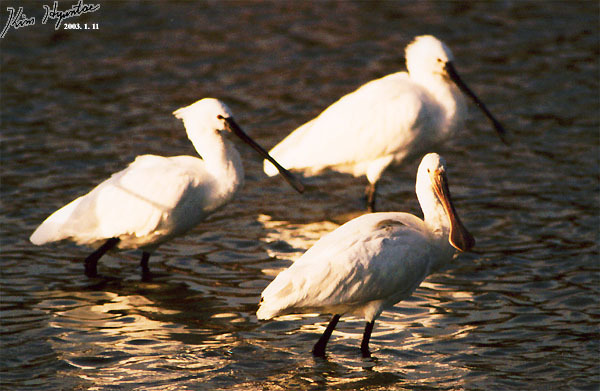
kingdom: Animalia
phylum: Chordata
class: Aves
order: Pelecaniformes
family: Threskiornithidae
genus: Platalea
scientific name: Platalea leucorodia
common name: Eurasian spoonbill
